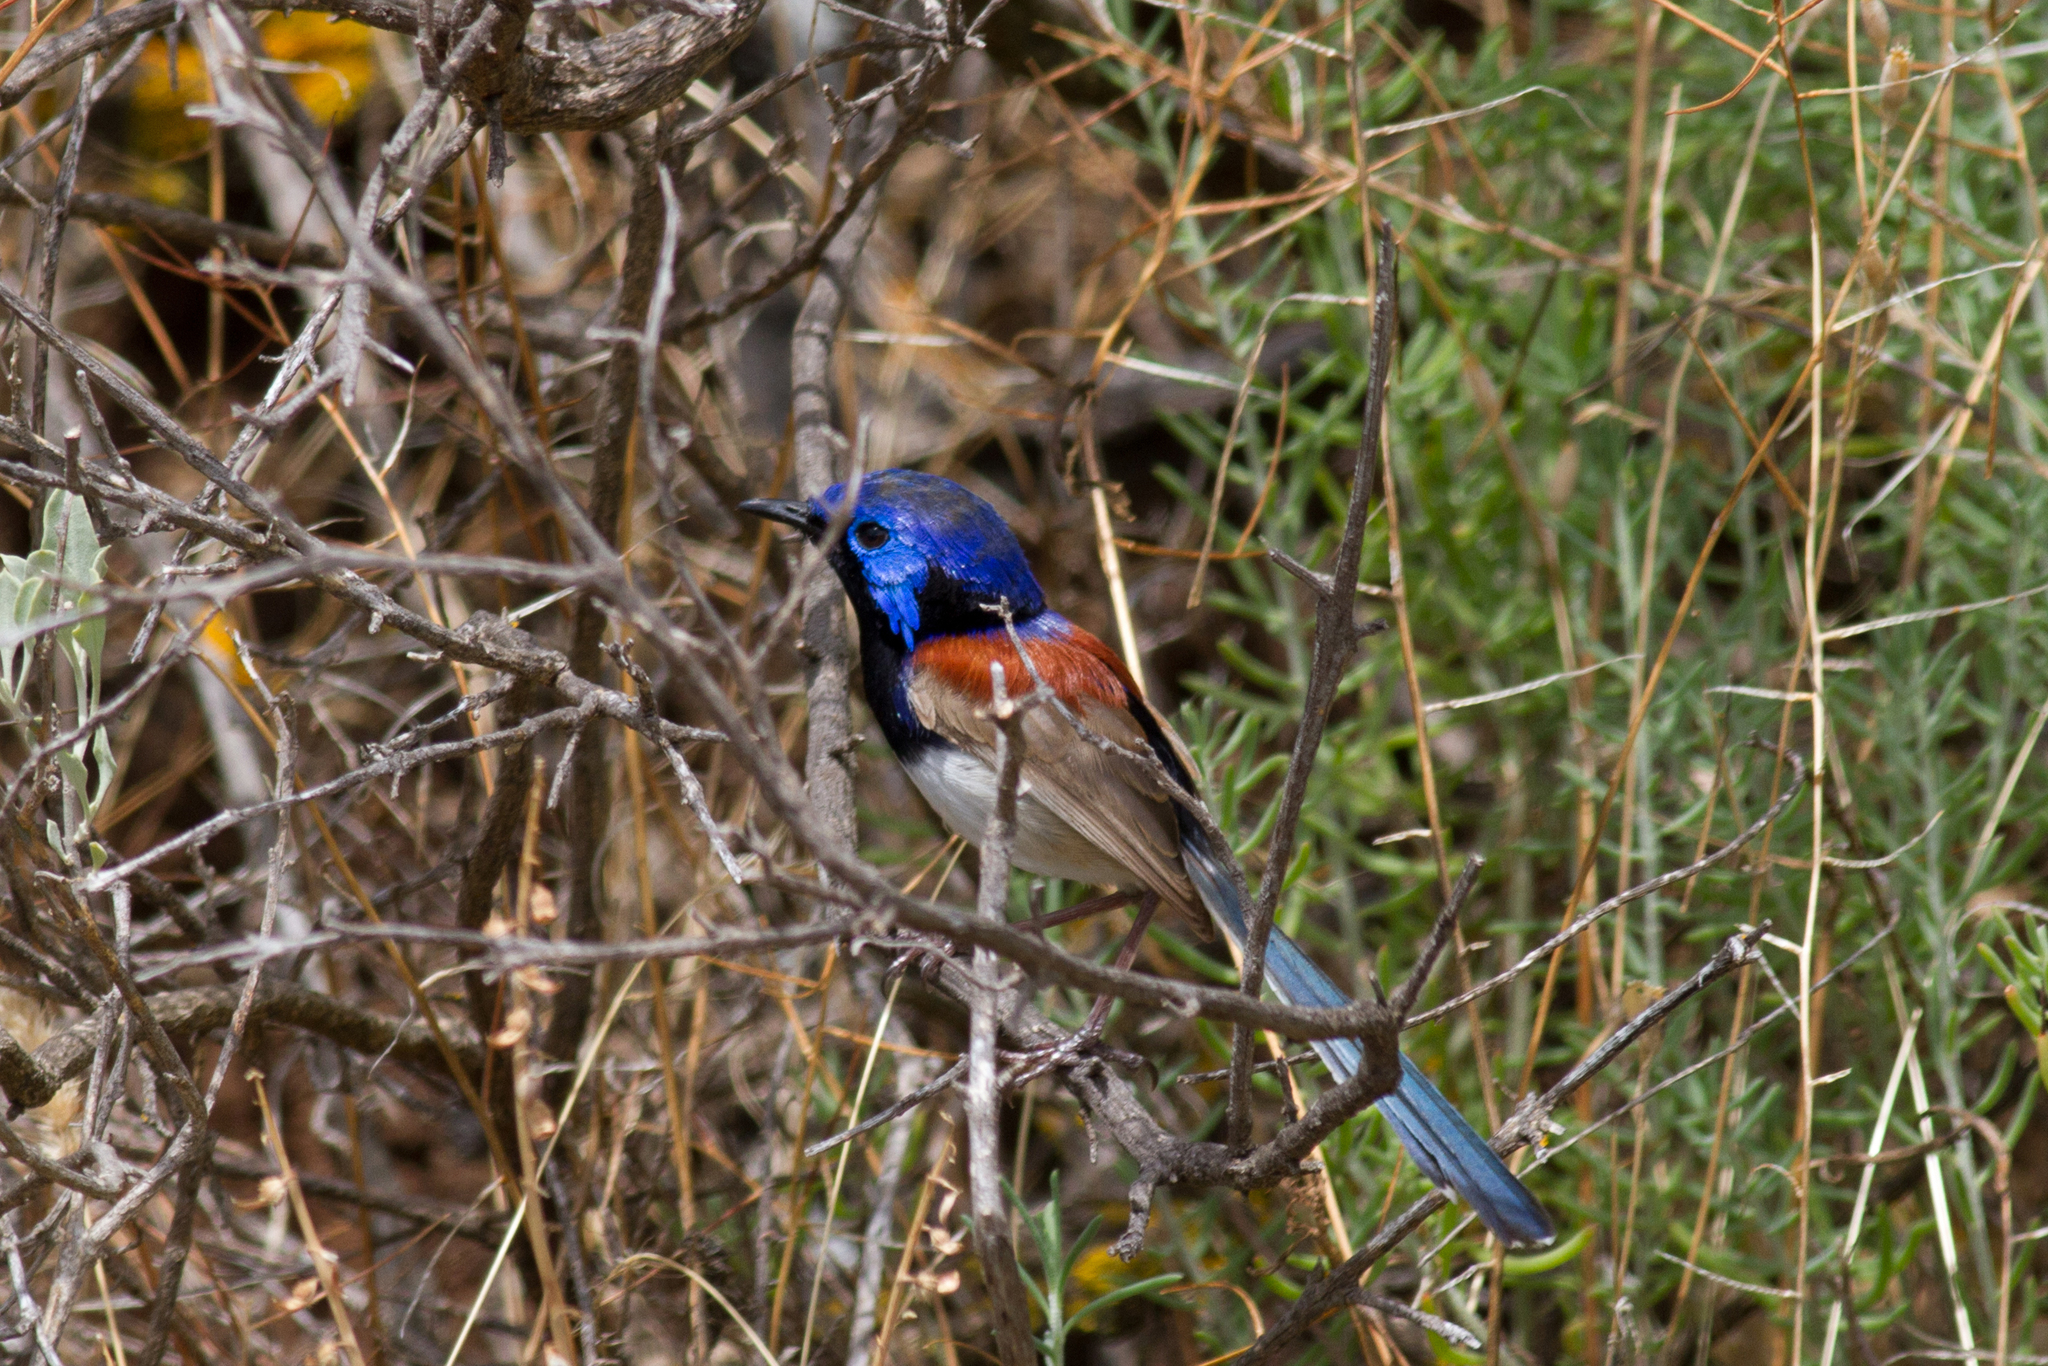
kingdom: Animalia
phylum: Chordata
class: Aves
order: Passeriformes
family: Maluridae
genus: Malurus
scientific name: Malurus assimilis
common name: Purple-backed fairywren
